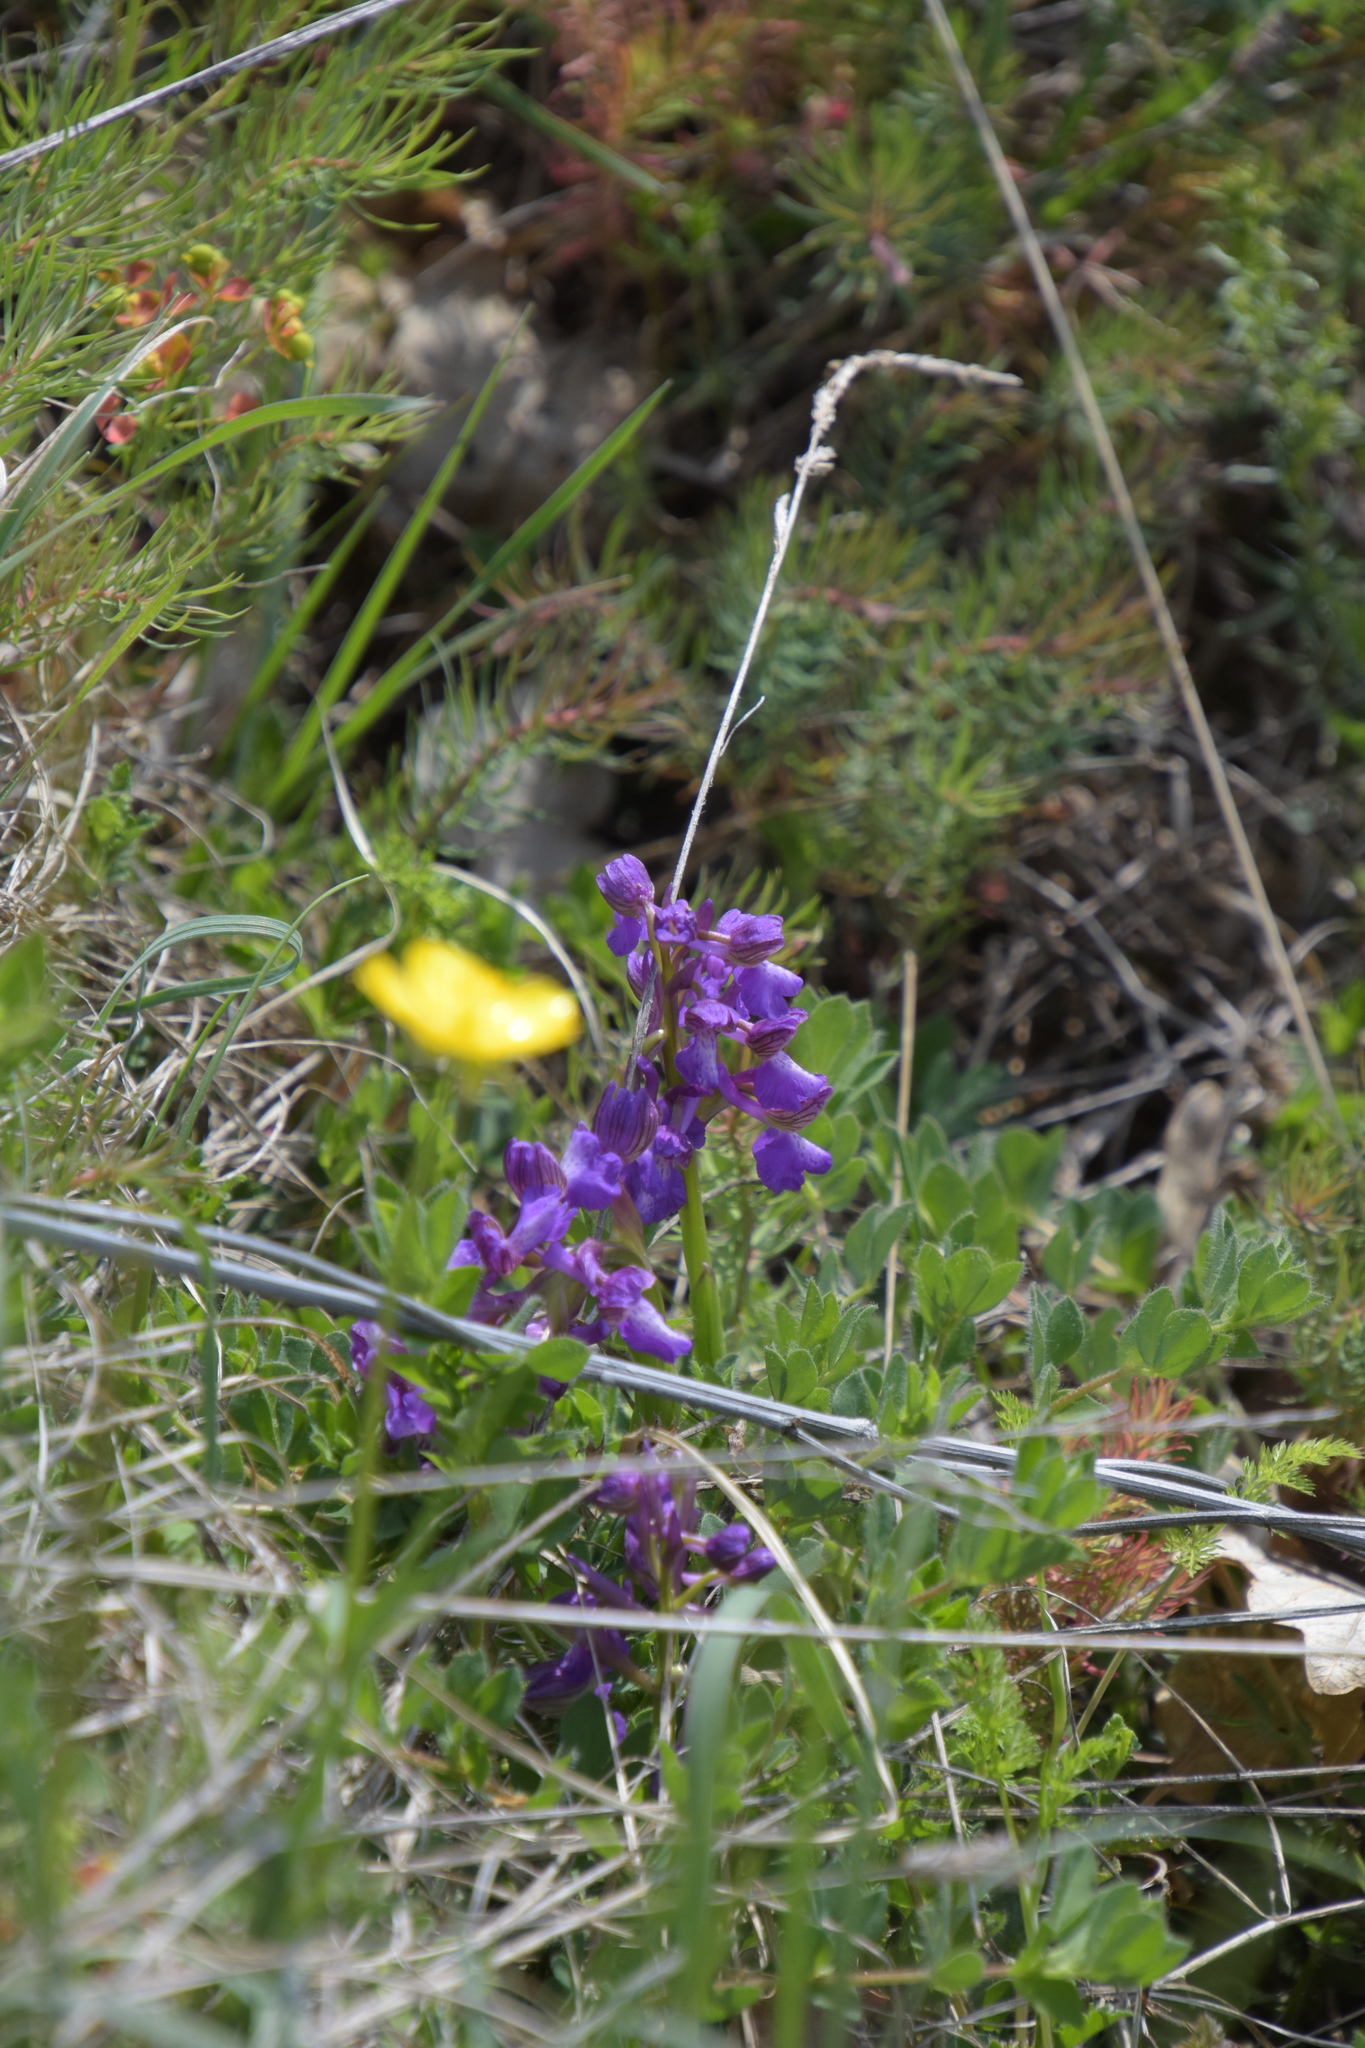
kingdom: Plantae
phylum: Tracheophyta
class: Liliopsida
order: Asparagales
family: Orchidaceae
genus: Anacamptis
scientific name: Anacamptis morio
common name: Green-winged orchid
